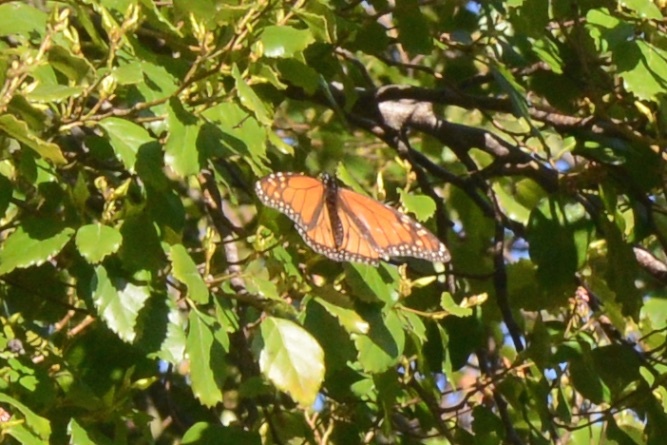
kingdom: Animalia
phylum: Arthropoda
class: Insecta
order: Lepidoptera
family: Nymphalidae
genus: Danaus
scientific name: Danaus plexippus
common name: Monarch
